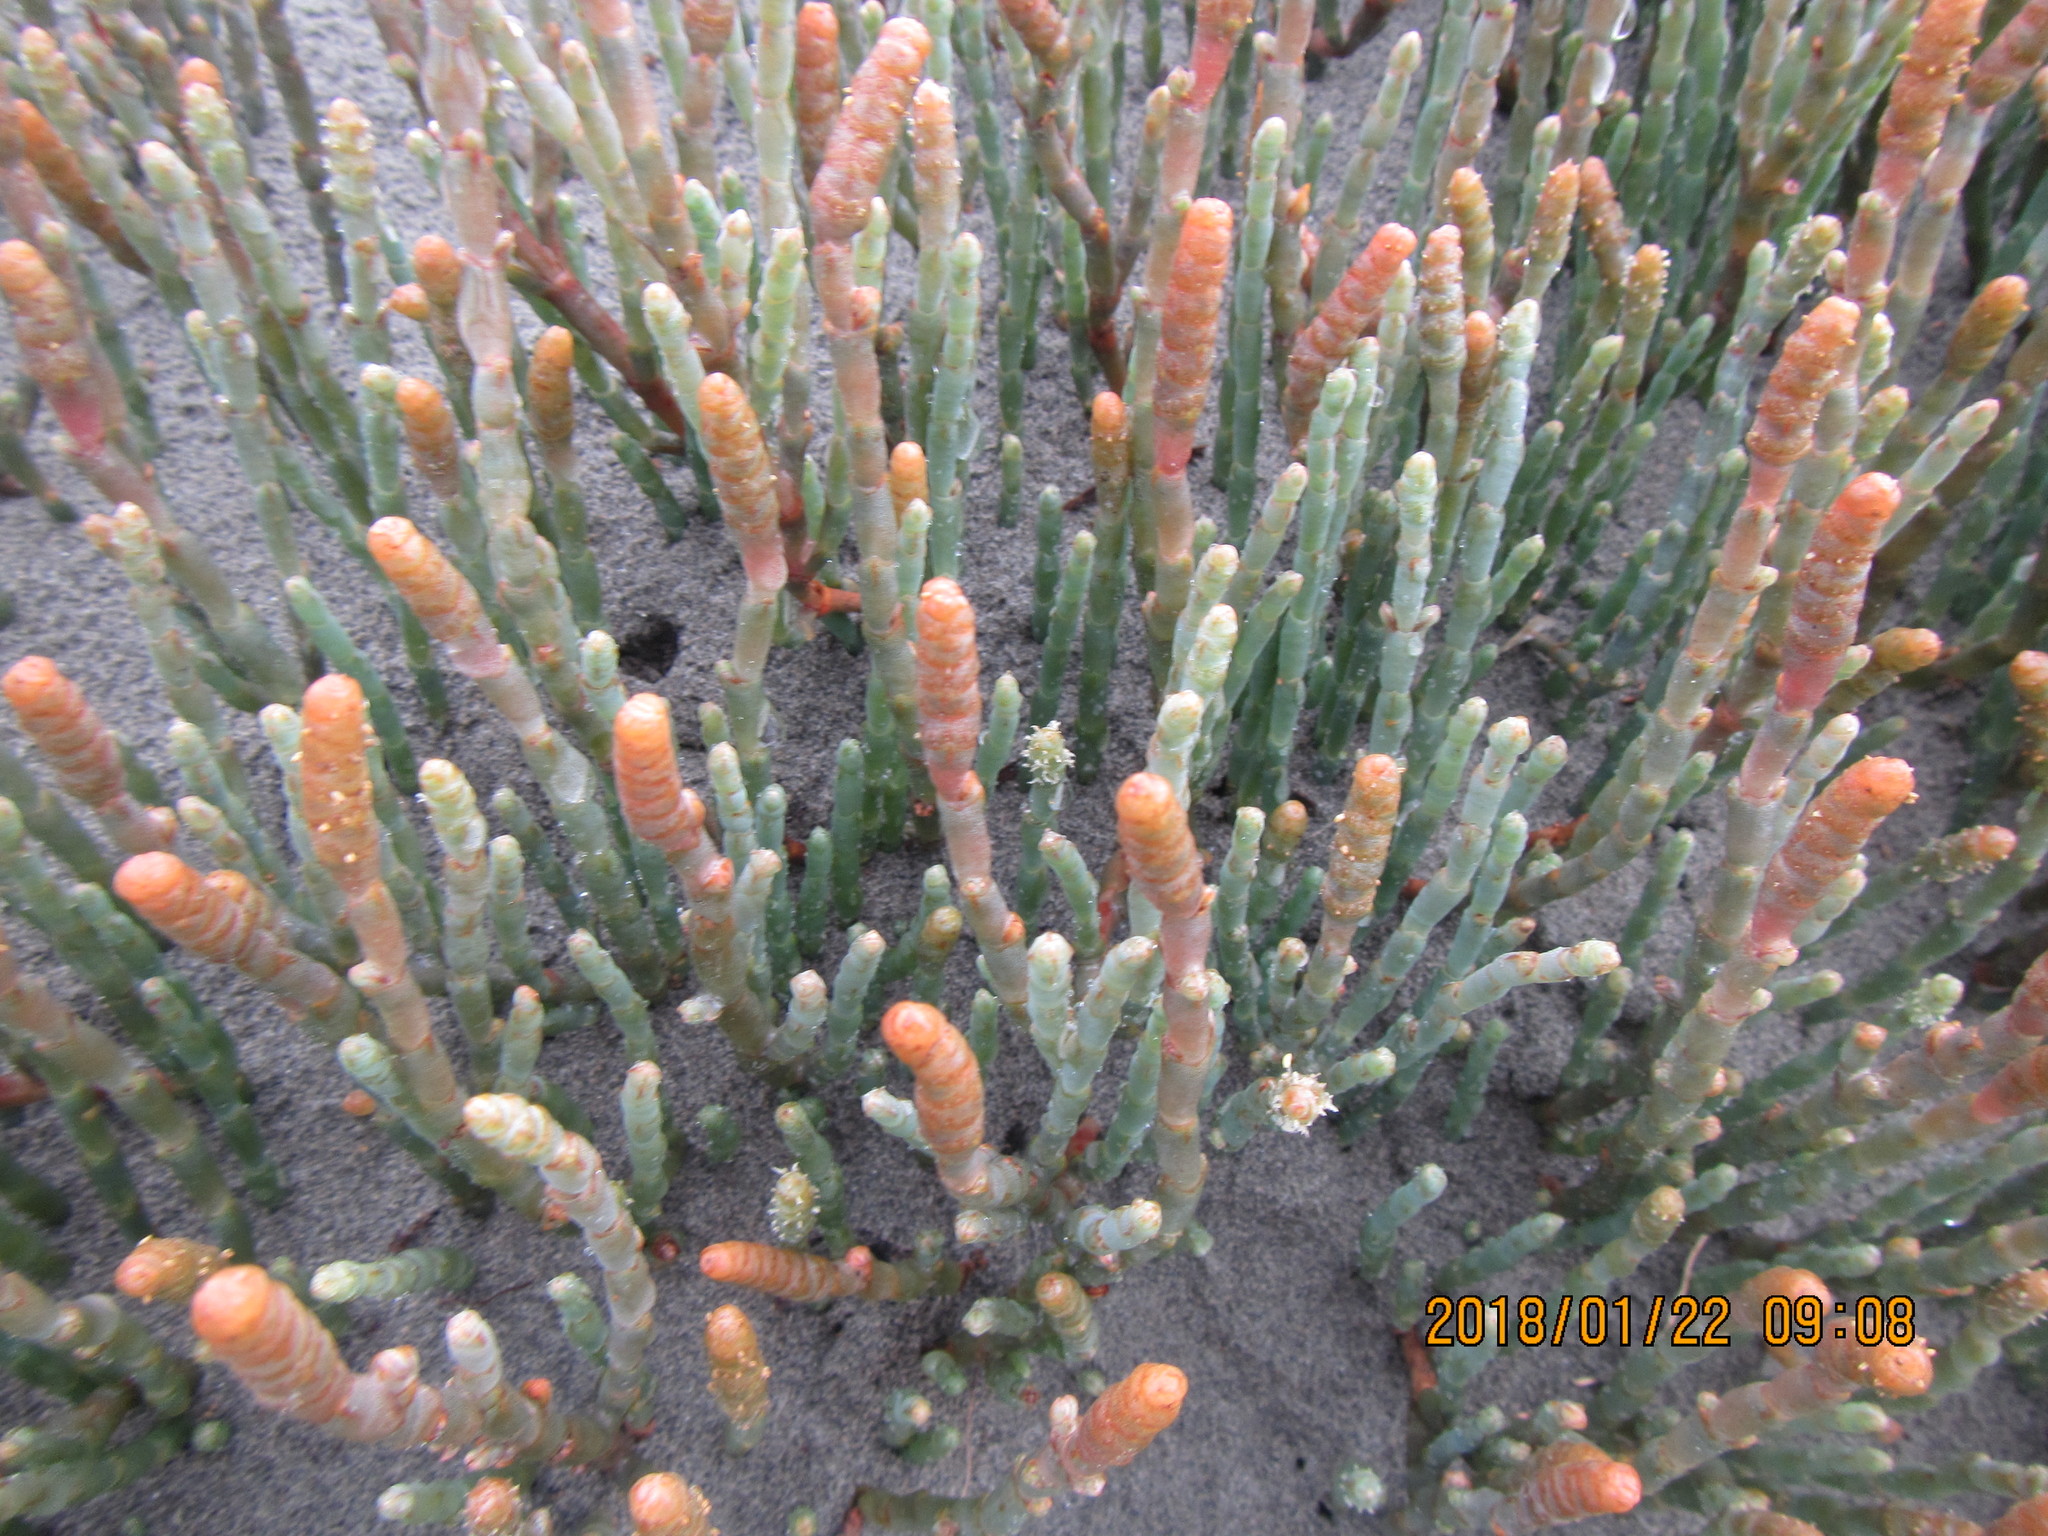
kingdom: Plantae
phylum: Tracheophyta
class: Magnoliopsida
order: Caryophyllales
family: Amaranthaceae
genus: Salicornia
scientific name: Salicornia quinqueflora
